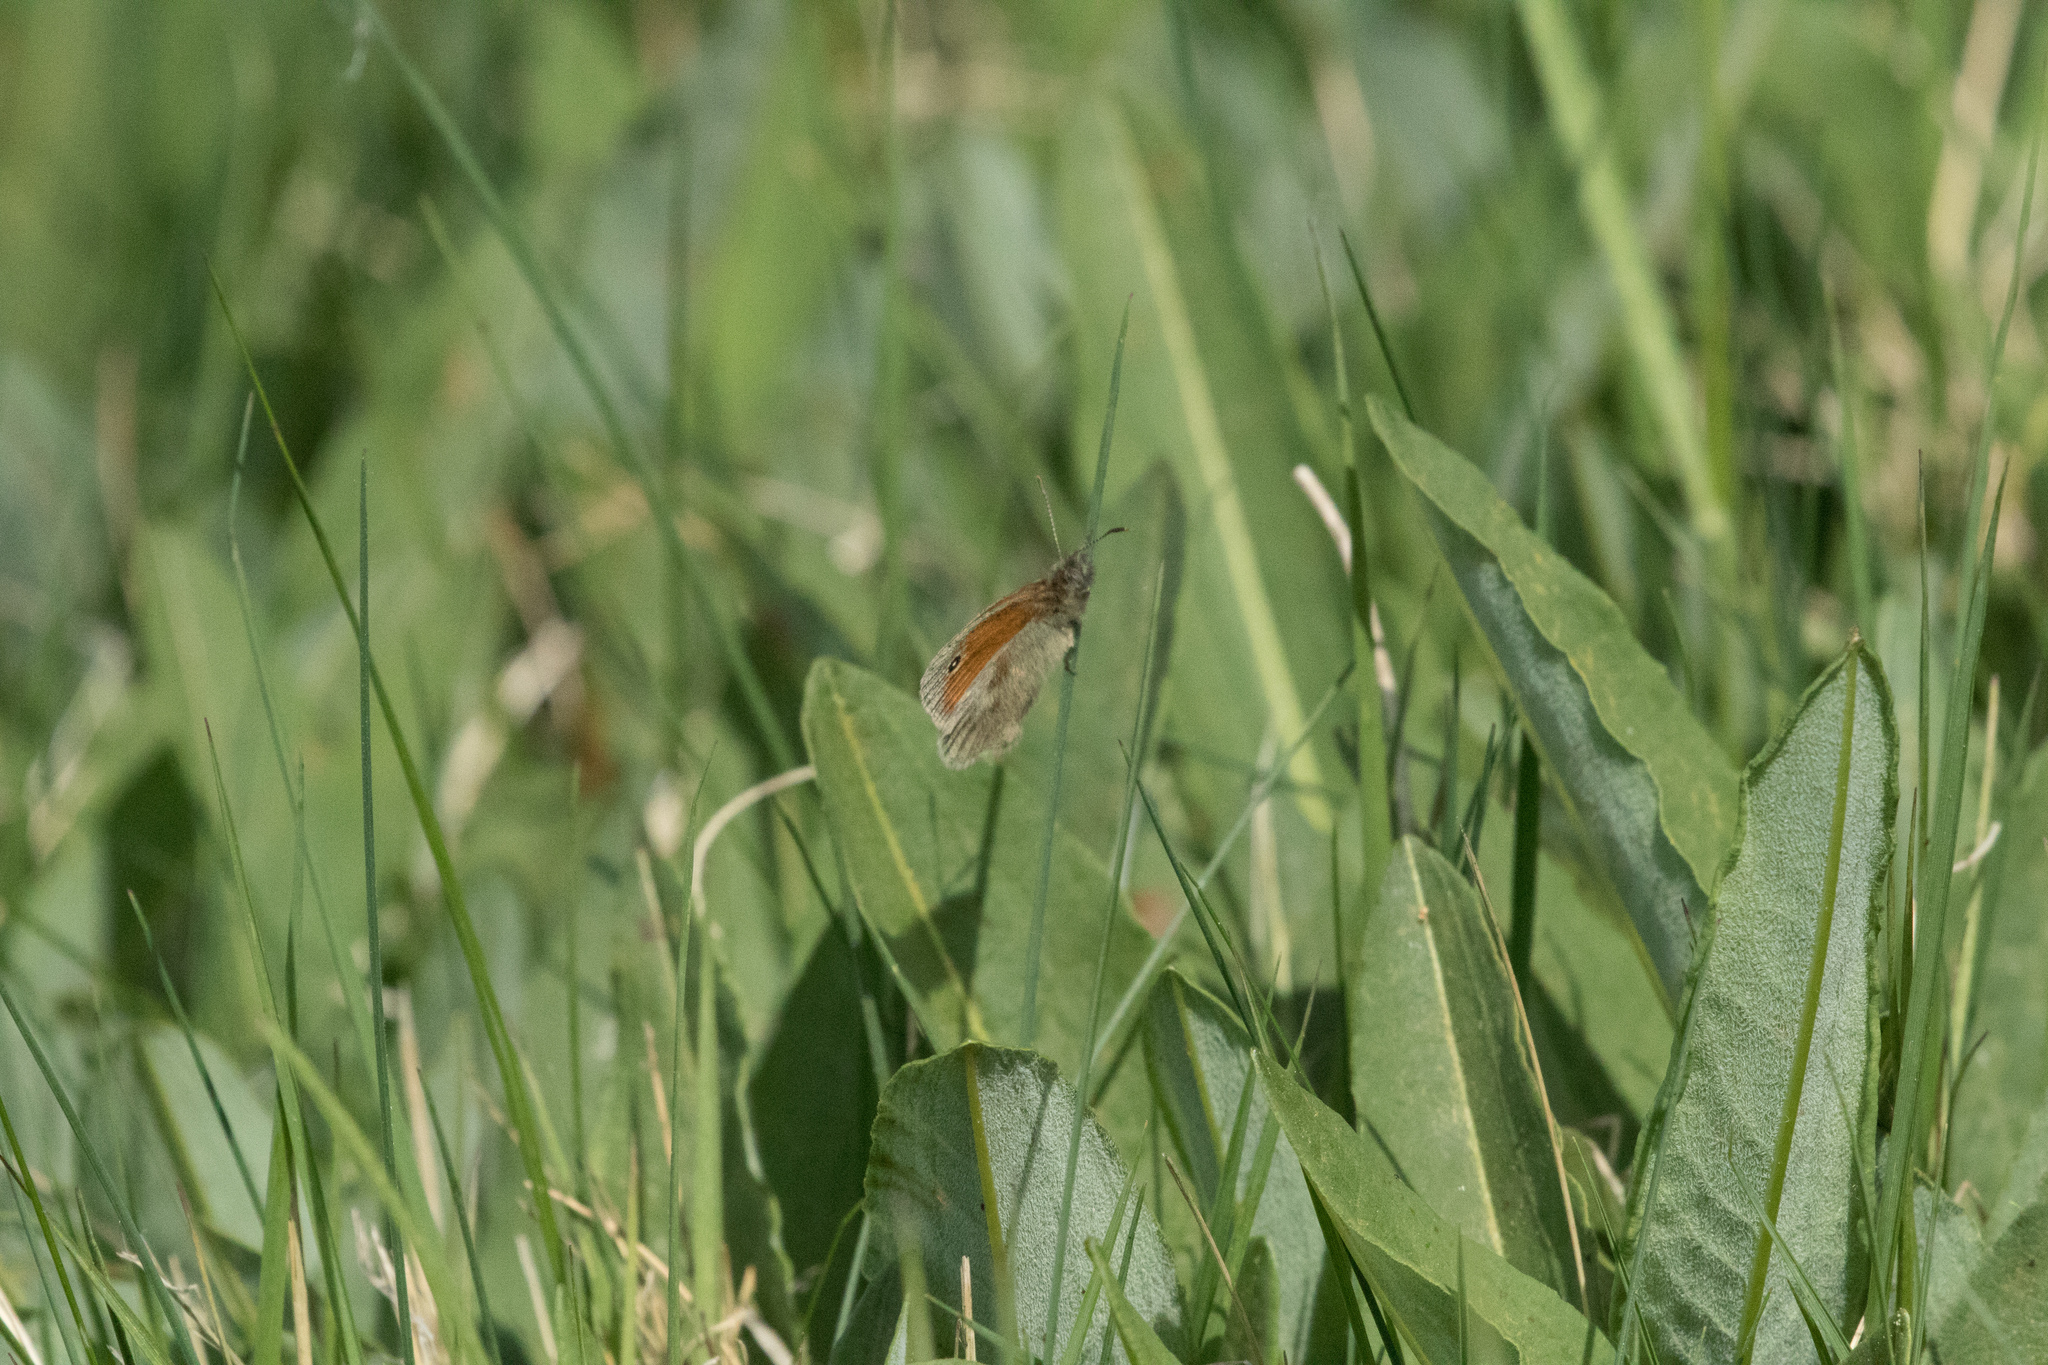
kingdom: Animalia
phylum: Arthropoda
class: Insecta
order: Lepidoptera
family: Nymphalidae
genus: Coenonympha
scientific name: Coenonympha pamphilus
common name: Small heath
